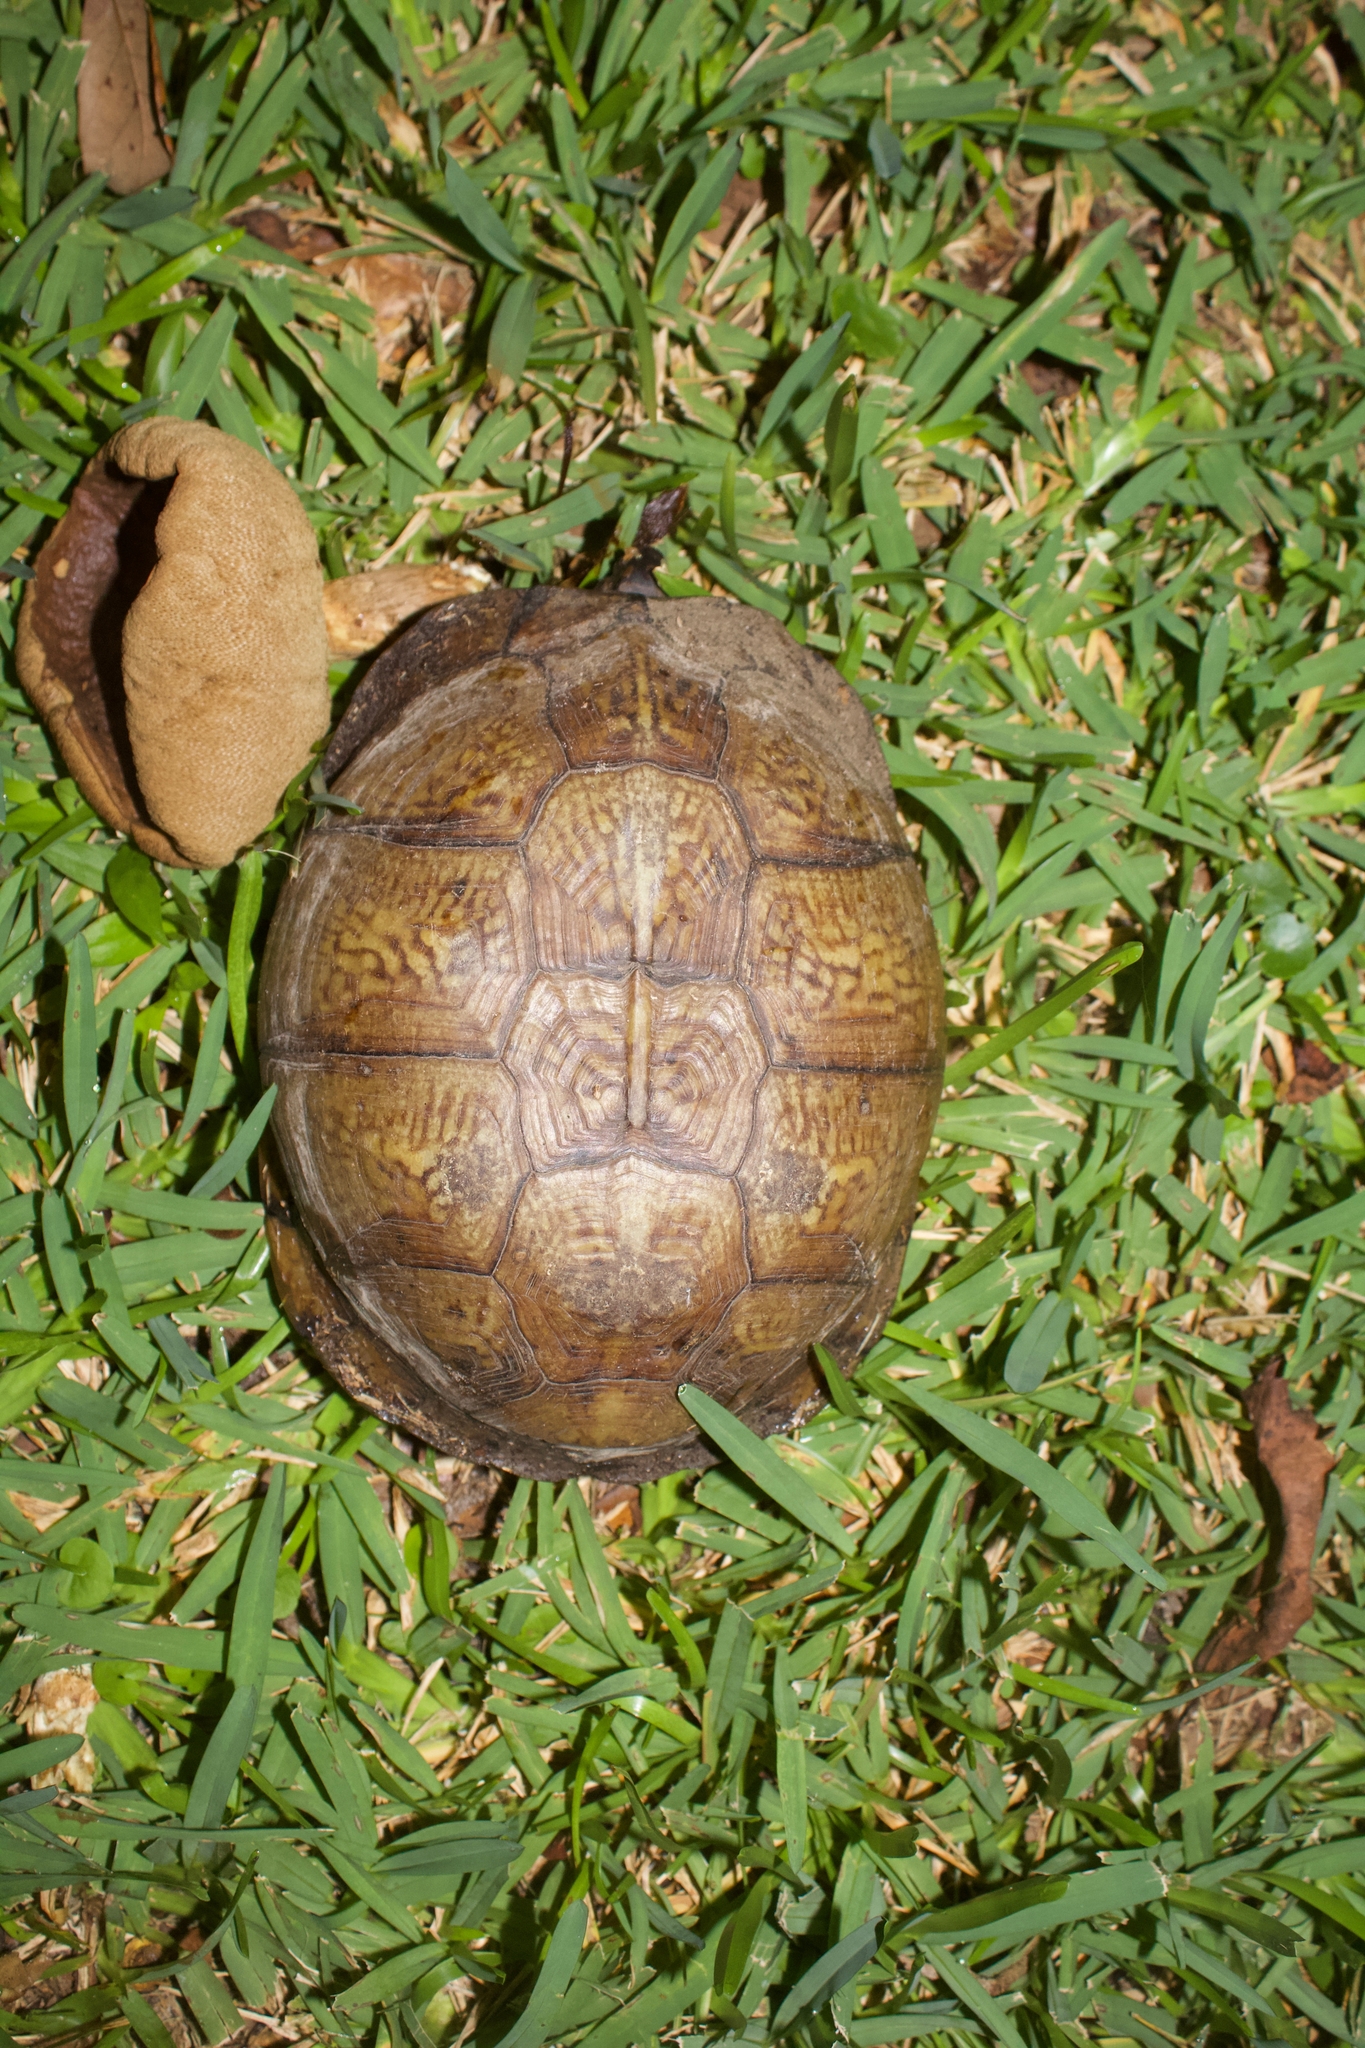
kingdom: Animalia
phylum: Chordata
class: Testudines
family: Emydidae
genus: Terrapene
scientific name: Terrapene carolina
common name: Common box turtle
